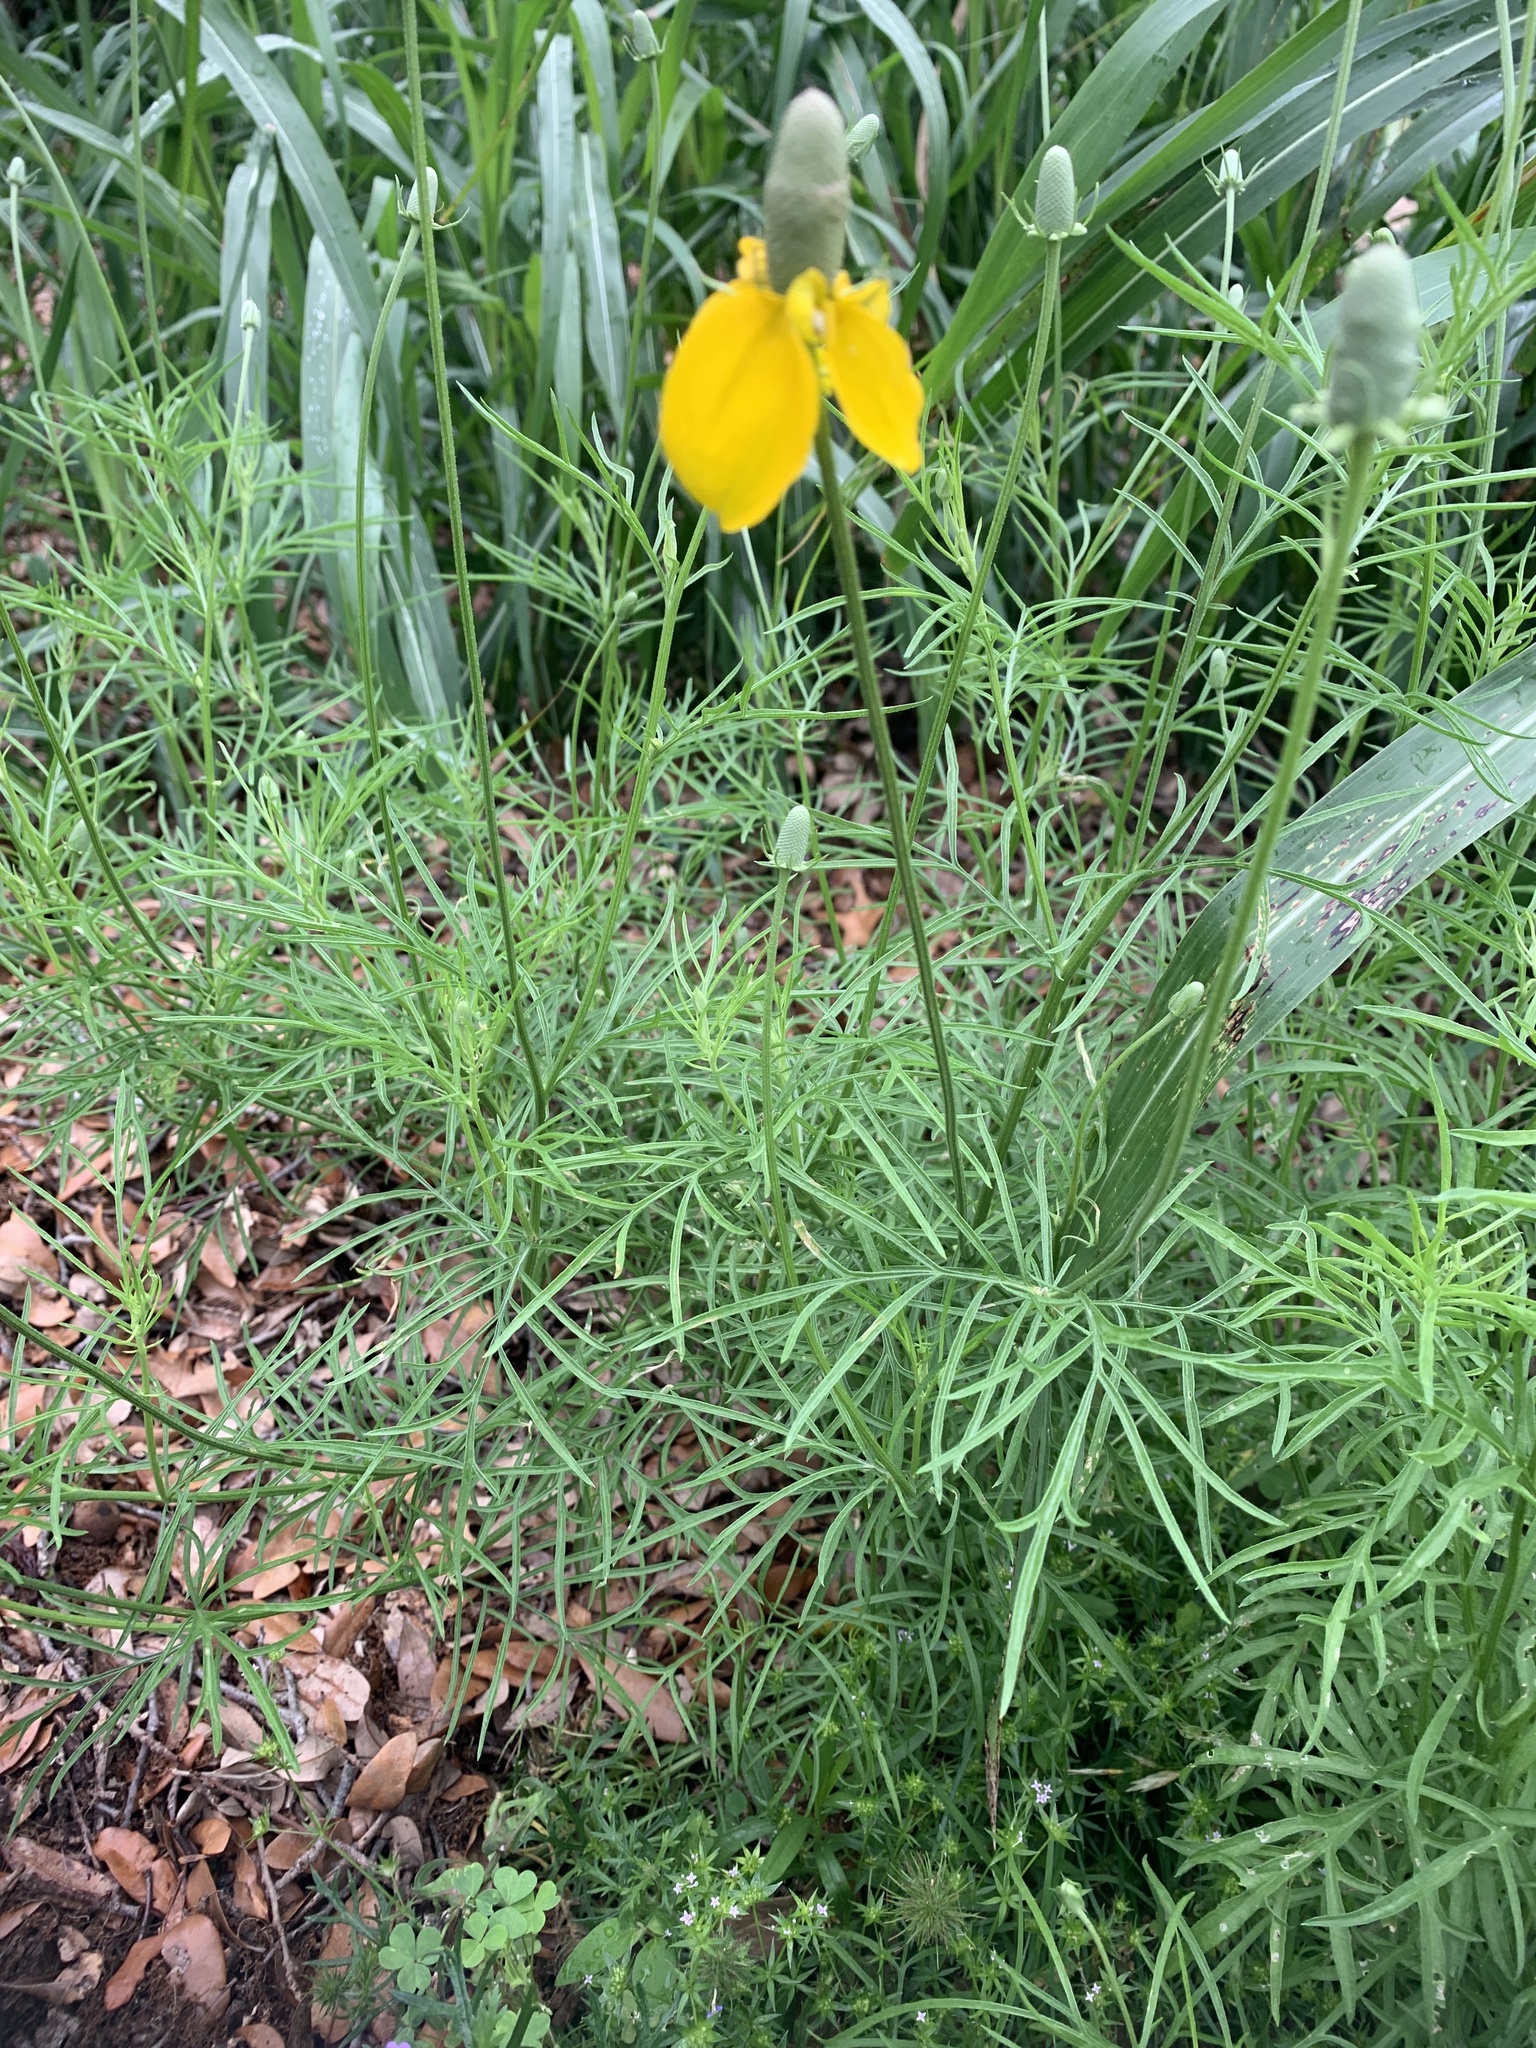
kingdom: Plantae
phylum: Tracheophyta
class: Magnoliopsida
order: Asterales
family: Asteraceae
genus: Ratibida
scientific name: Ratibida columnifera
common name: Prairie coneflower
